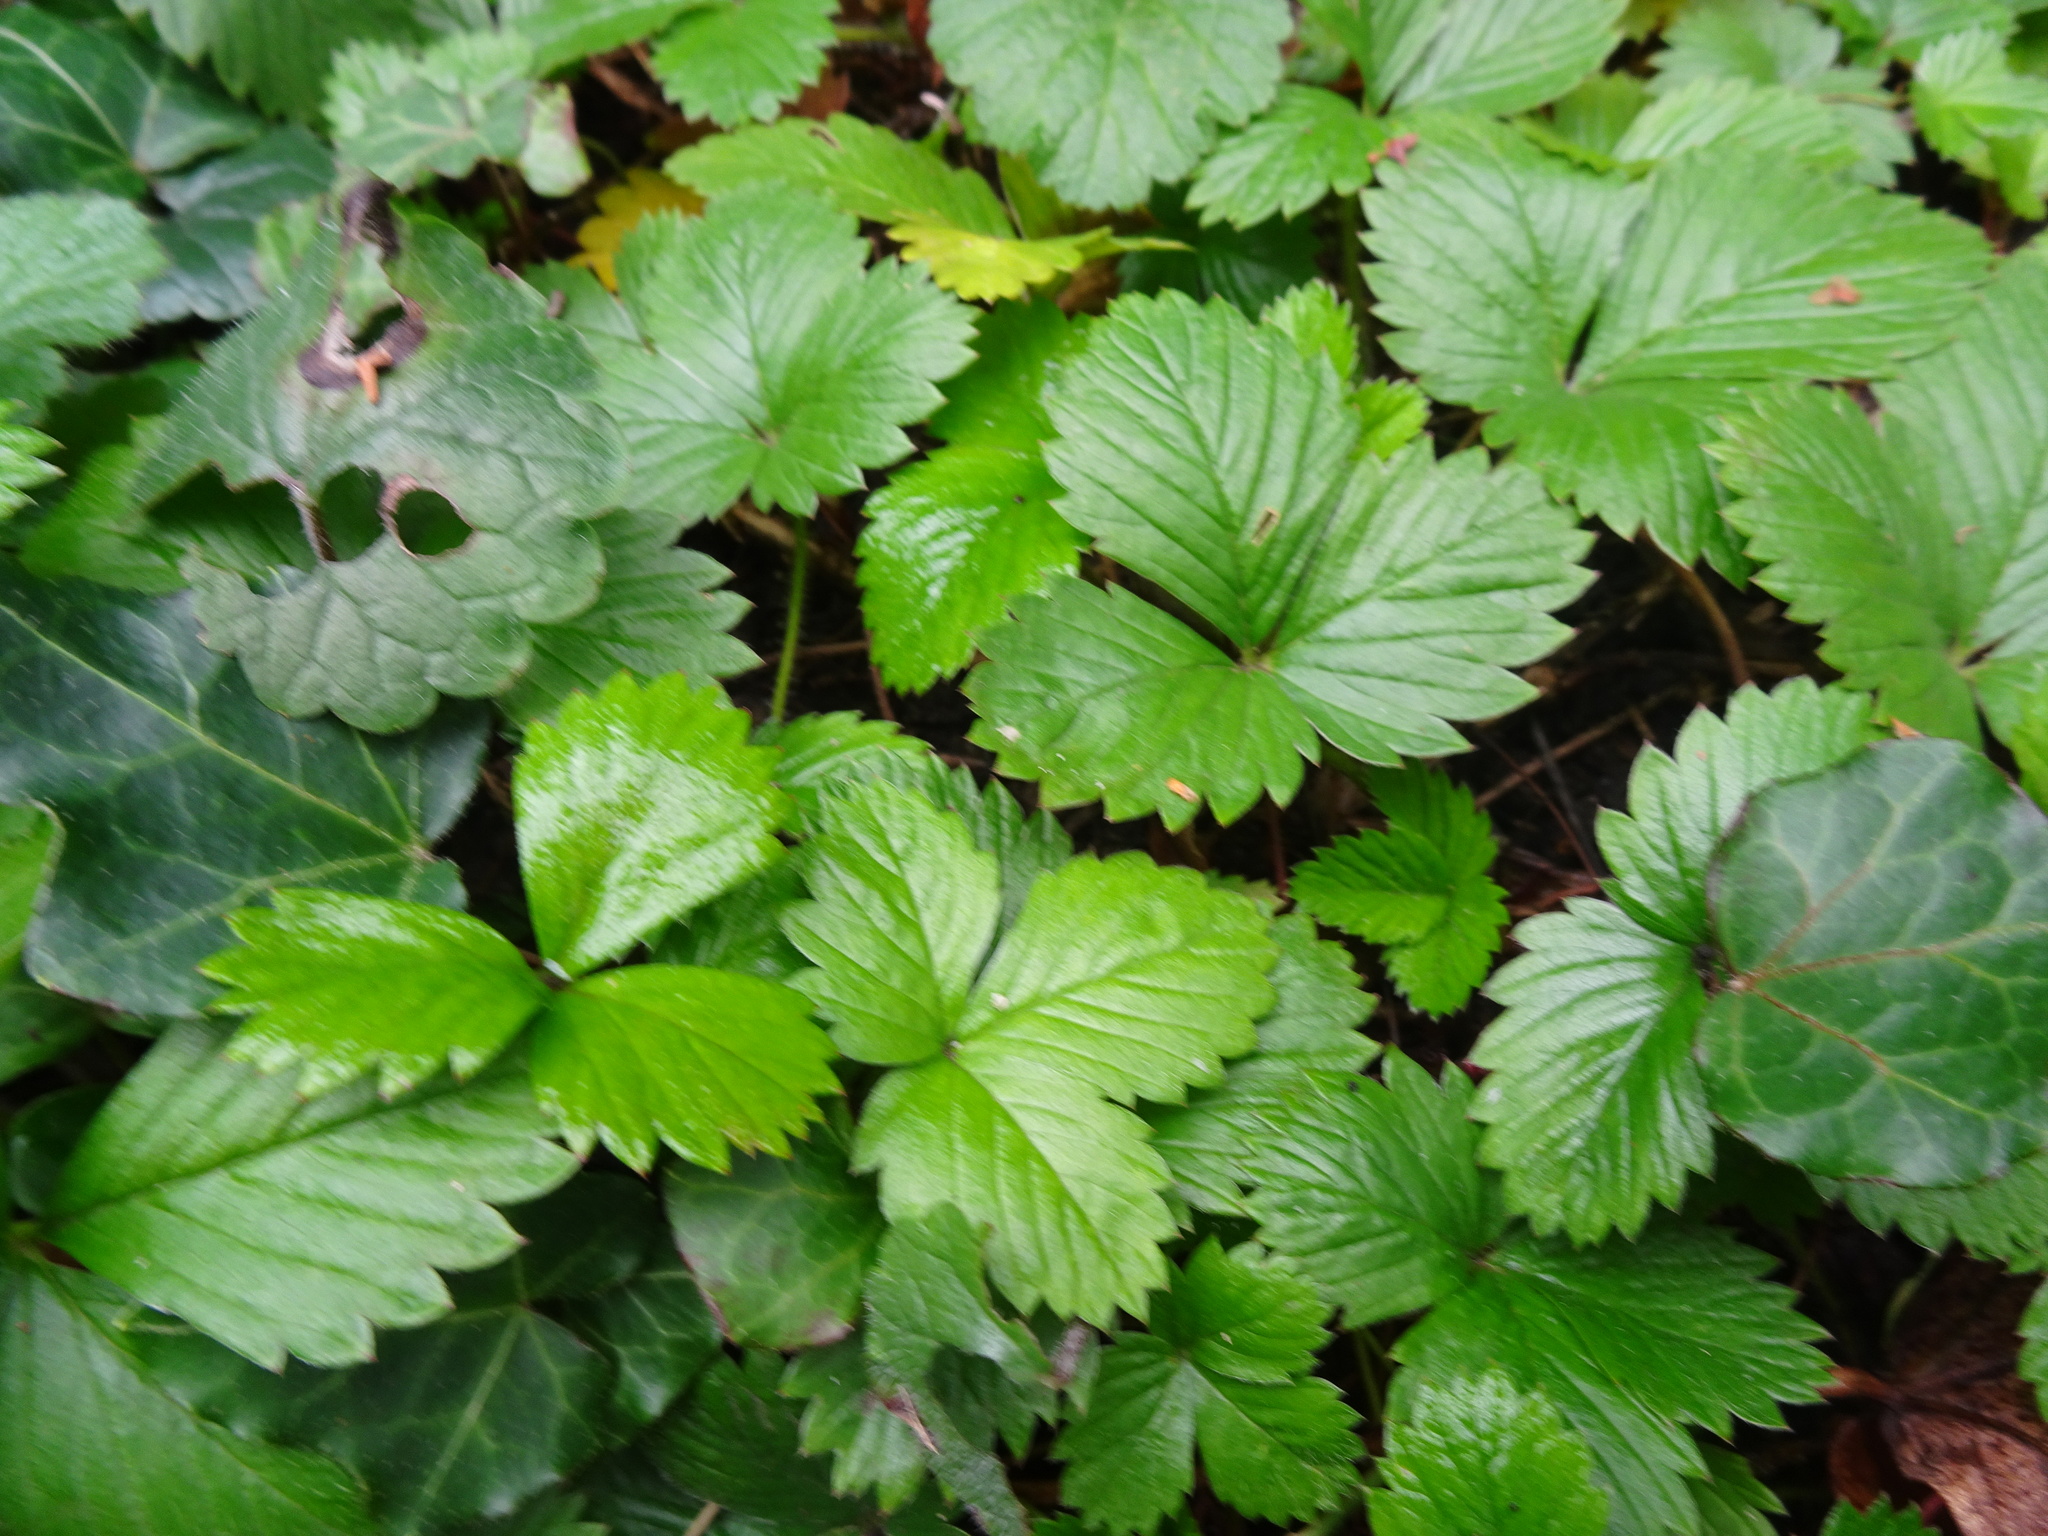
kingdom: Plantae
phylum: Tracheophyta
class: Magnoliopsida
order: Rosales
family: Rosaceae
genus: Fragaria
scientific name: Fragaria vesca
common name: Wild strawberry
